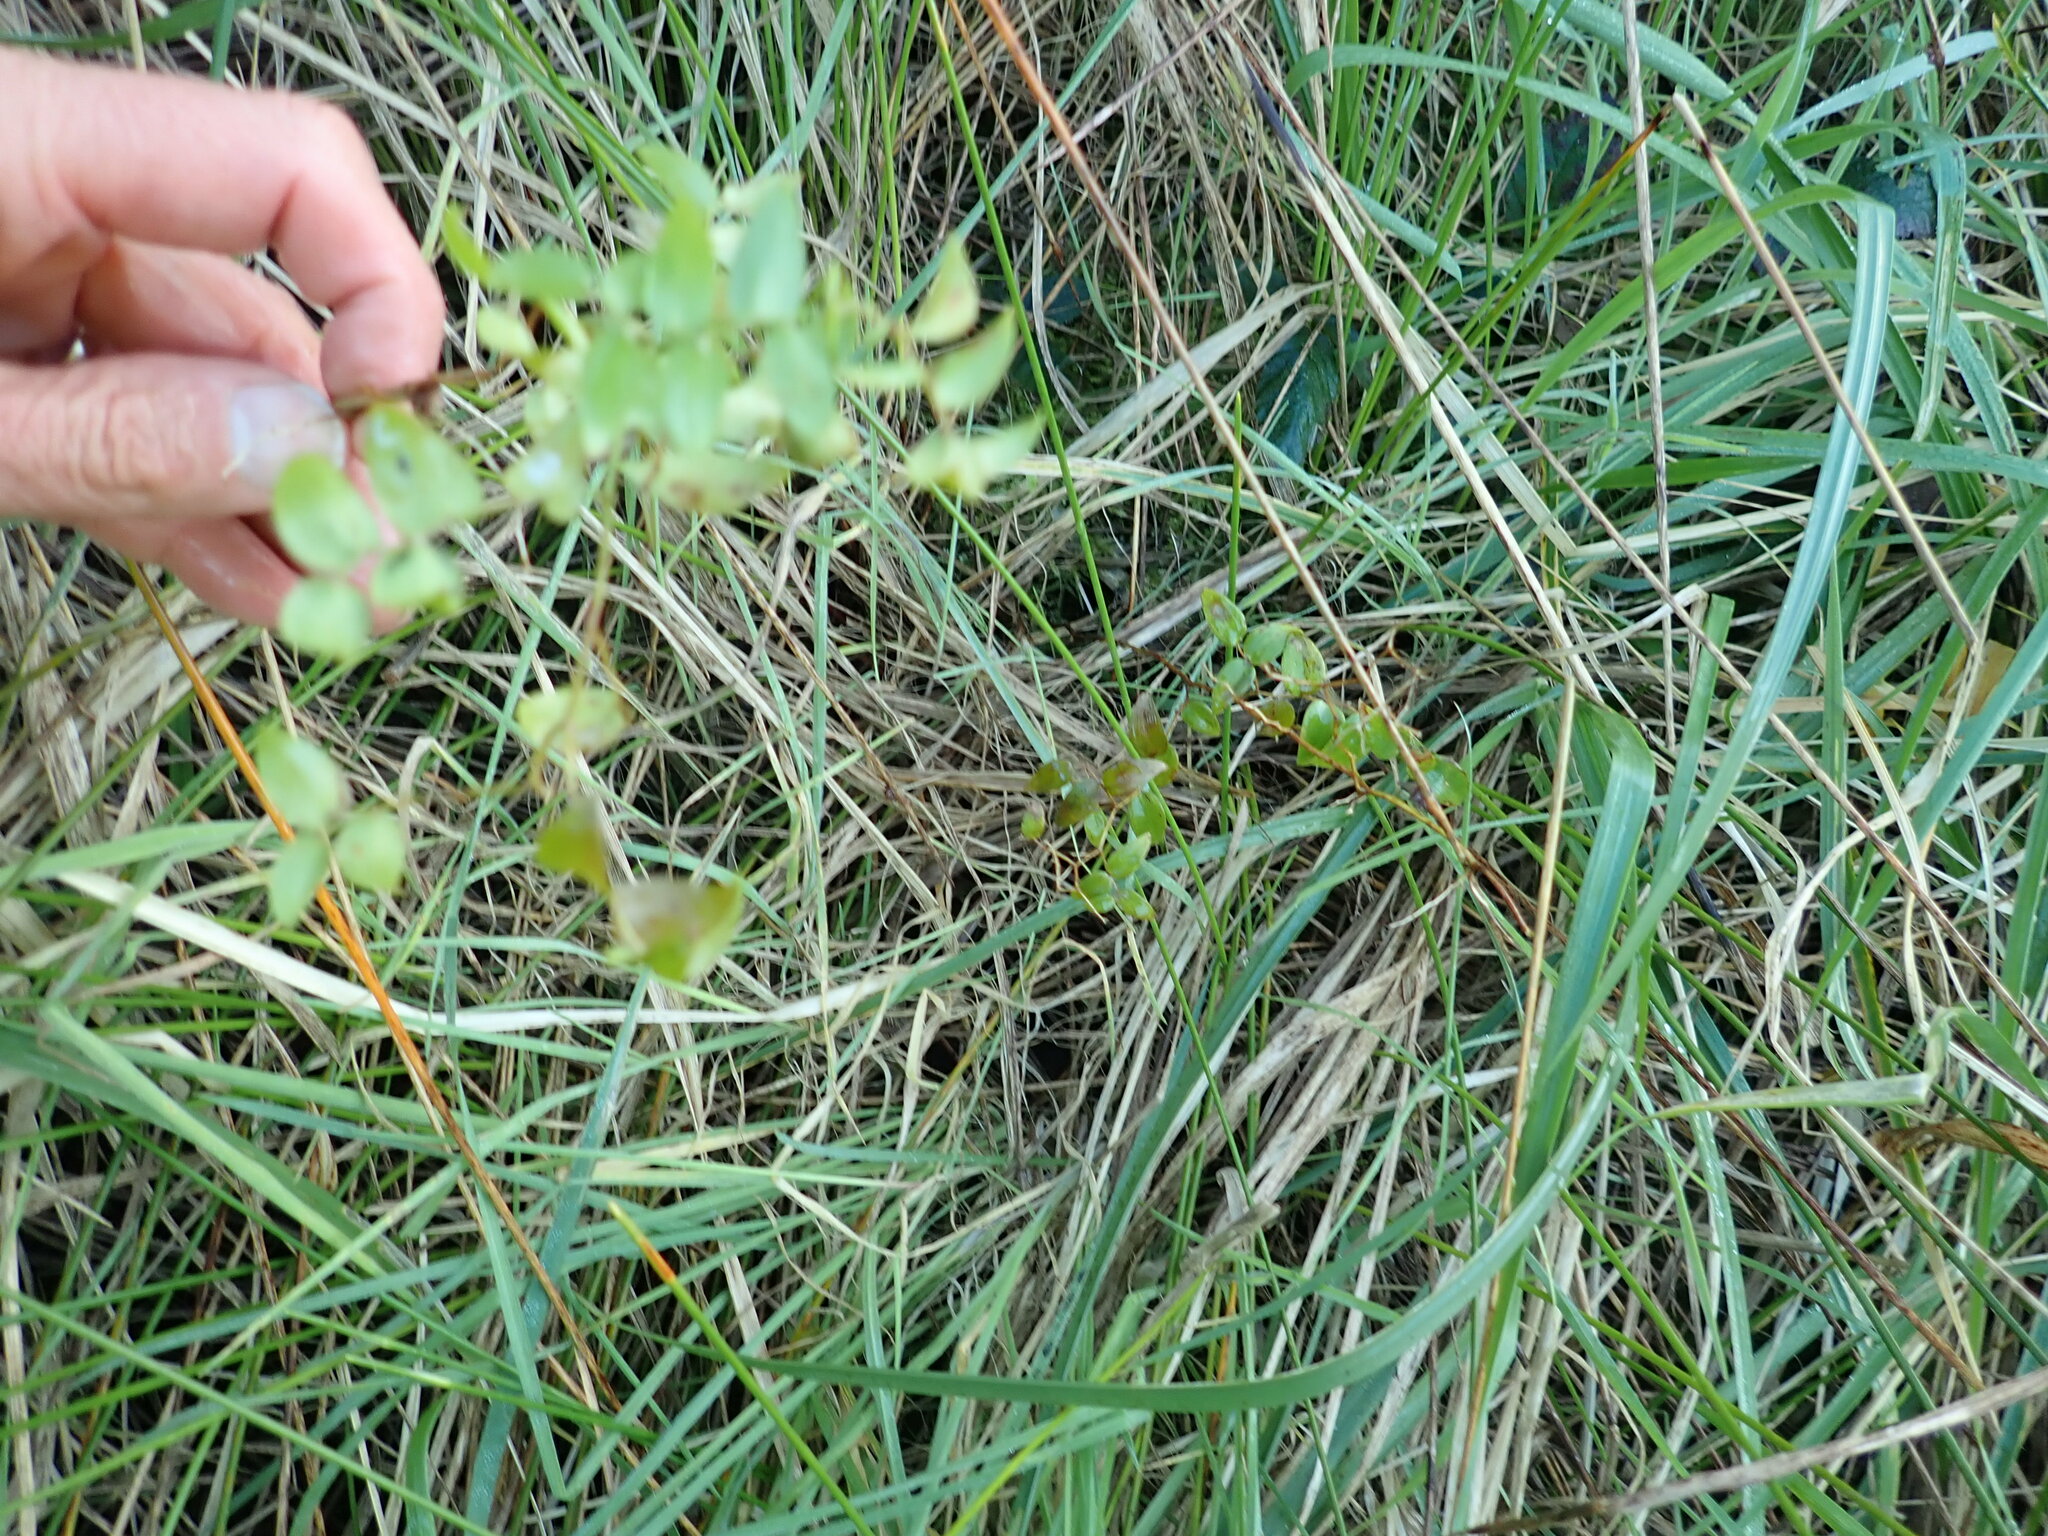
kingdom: Plantae
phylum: Tracheophyta
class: Liliopsida
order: Asparagales
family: Asparagaceae
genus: Asparagus
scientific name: Asparagus asparagoides
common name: African asparagus fern
